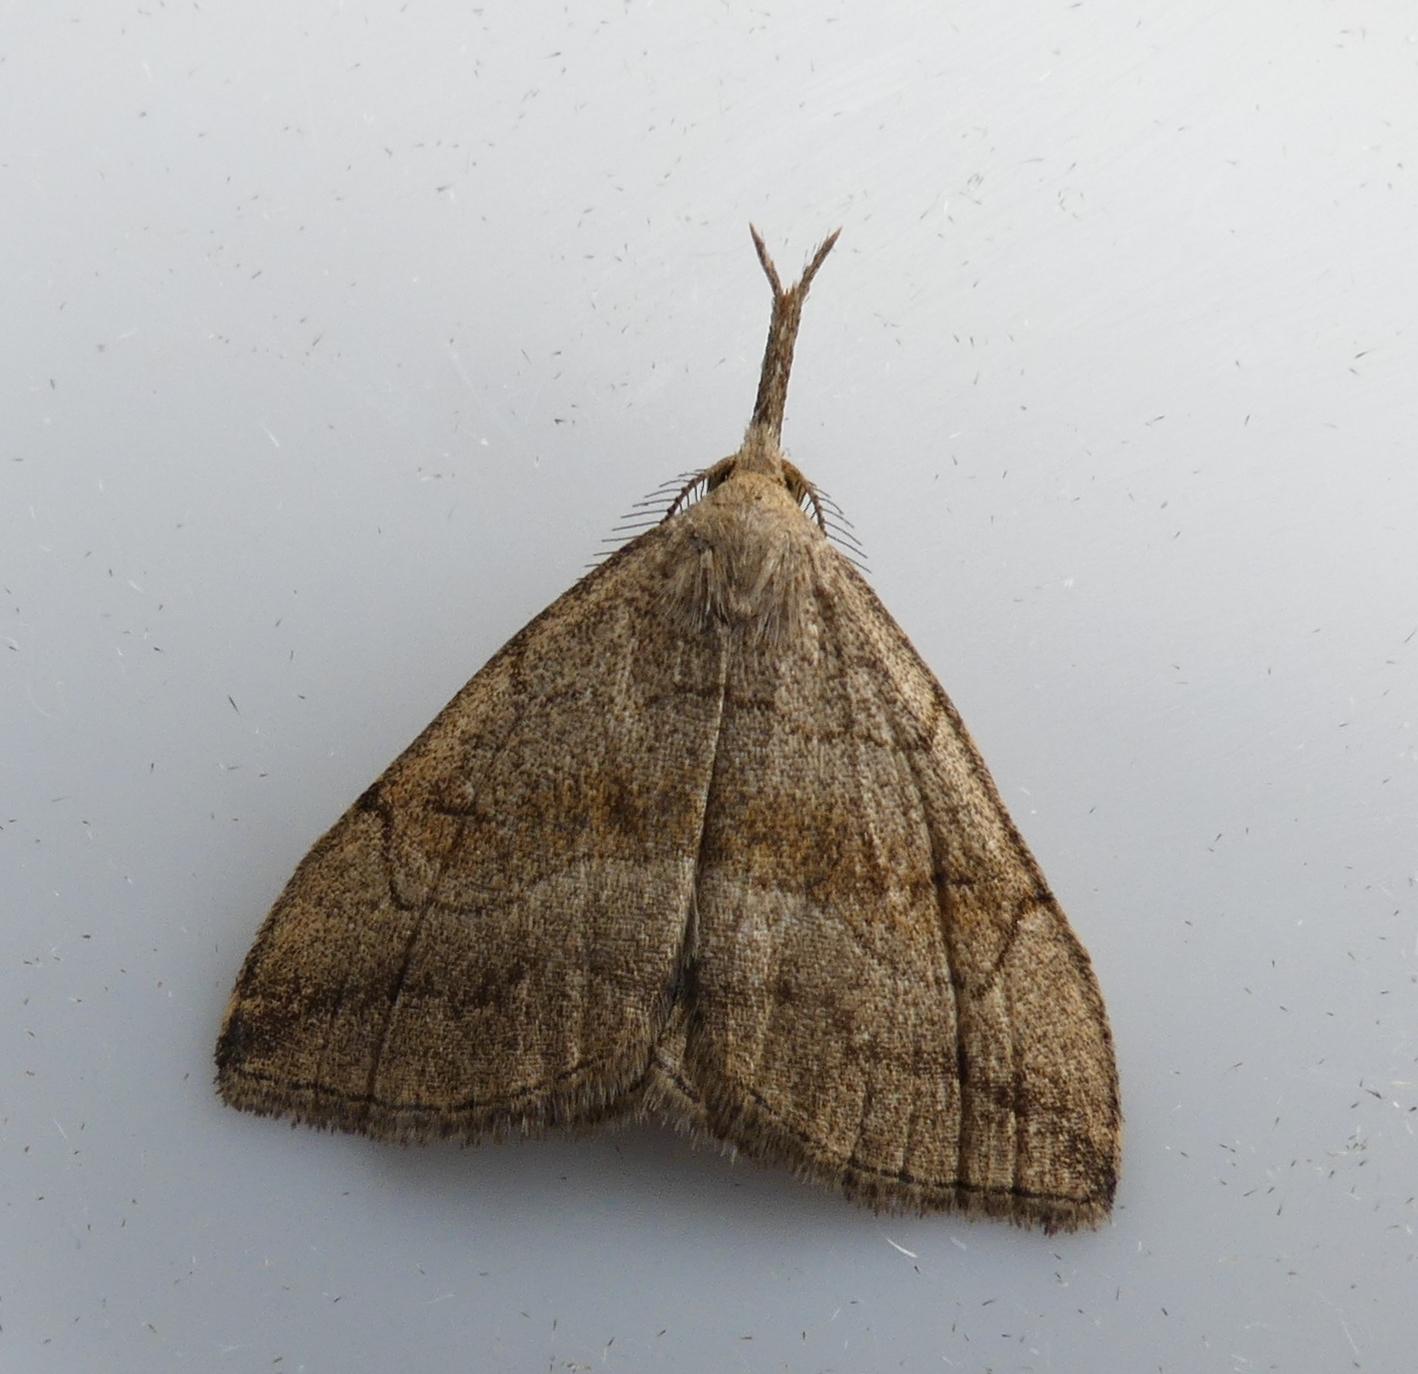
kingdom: Animalia
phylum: Arthropoda
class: Insecta
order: Lepidoptera
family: Erebidae
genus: Phalaenostola
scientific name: Phalaenostola metonalis
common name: Pale phalaenostola moth
